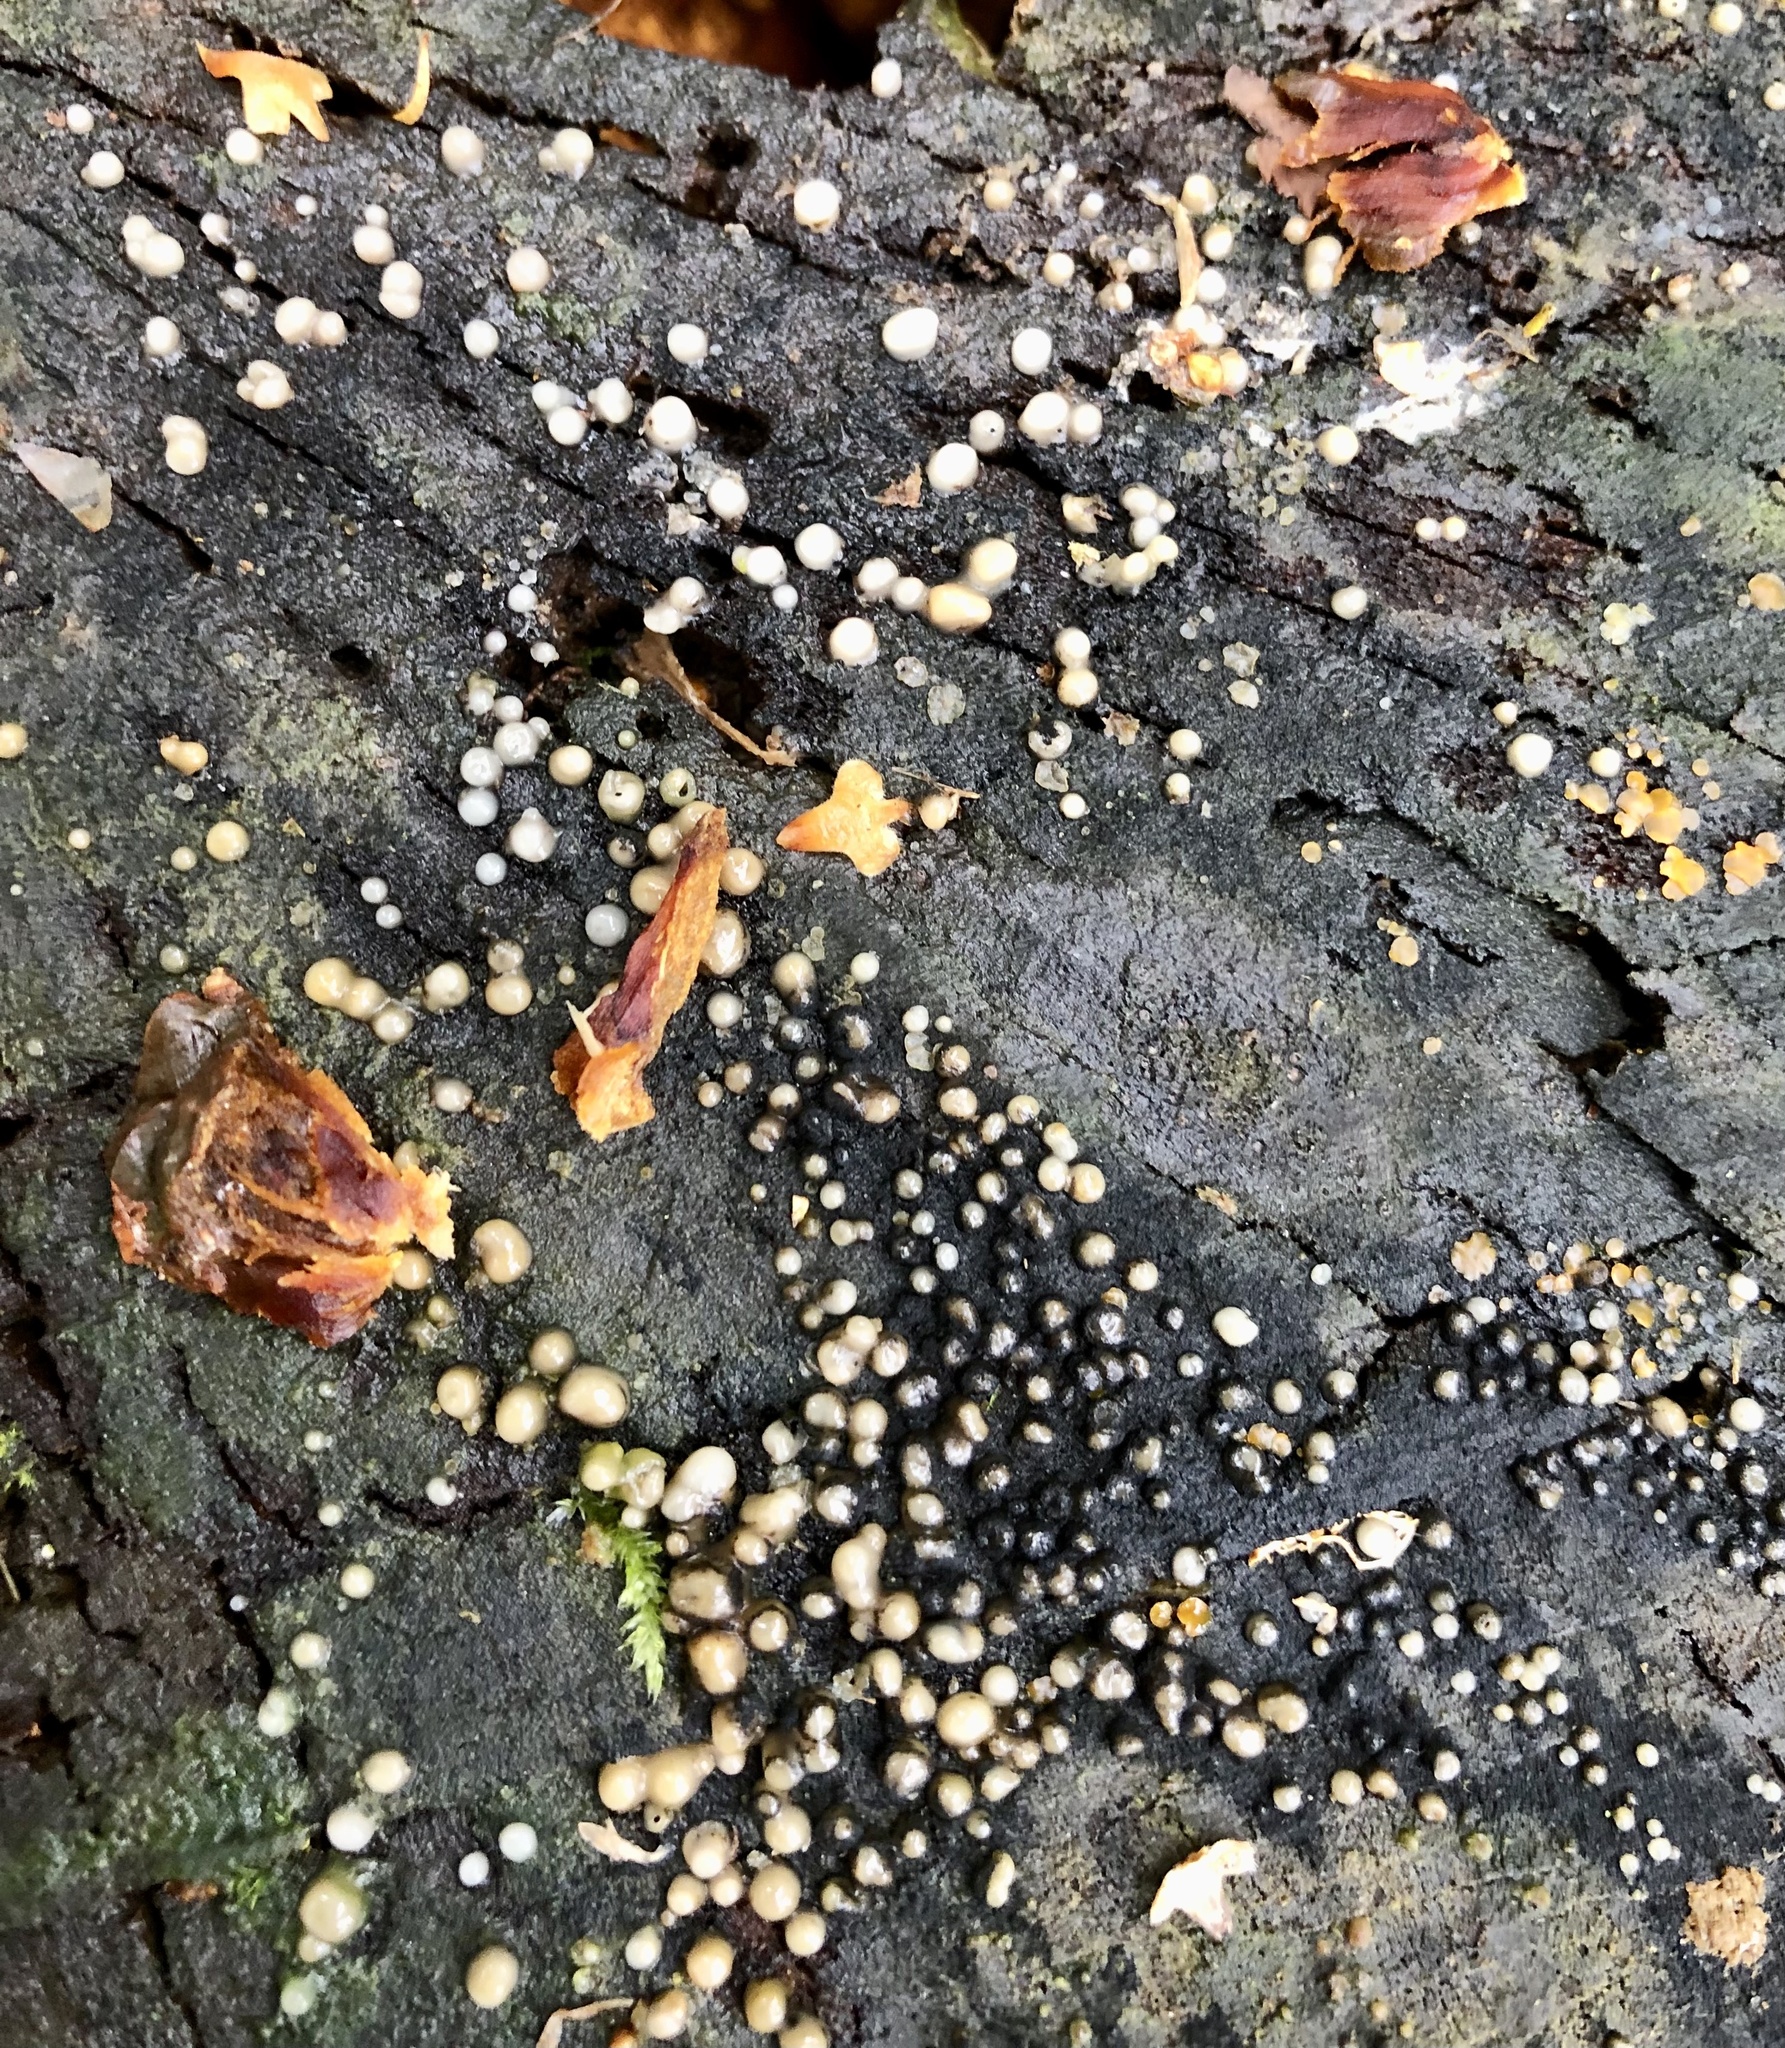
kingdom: Fungi
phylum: Basidiomycota
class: Atractiellomycetes
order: Atractiellales
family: Phleogenaceae
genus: Helicogloea
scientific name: Helicogloea compressa
